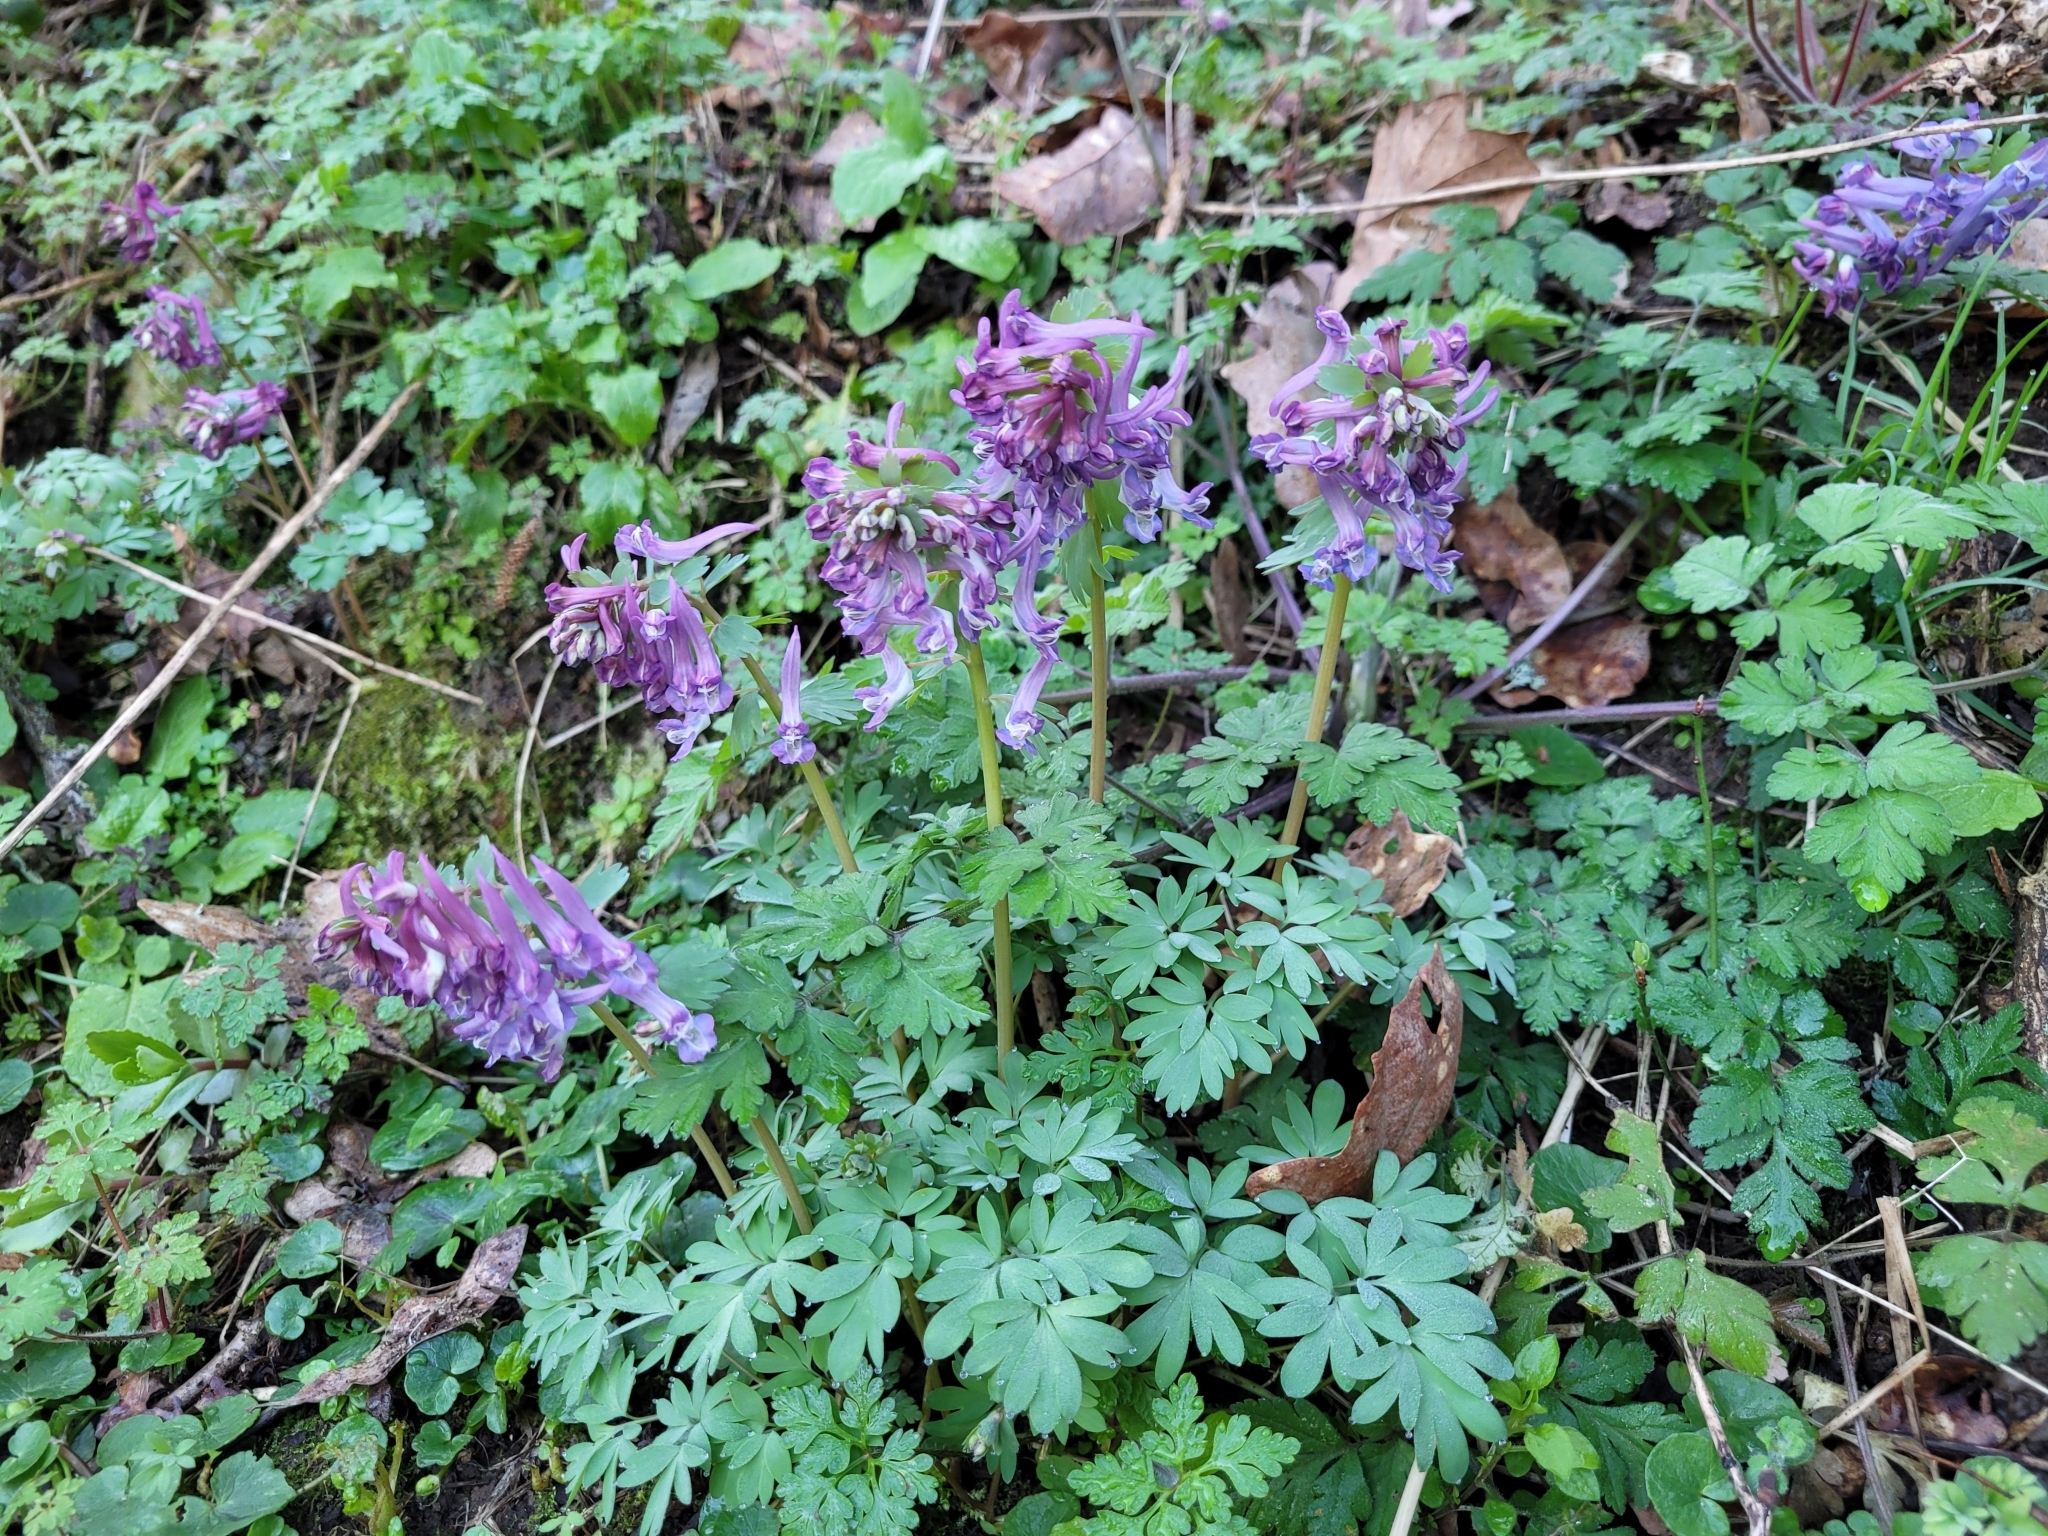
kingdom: Plantae
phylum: Tracheophyta
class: Magnoliopsida
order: Ranunculales
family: Papaveraceae
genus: Corydalis
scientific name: Corydalis solida
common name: Bird-in-a-bush
